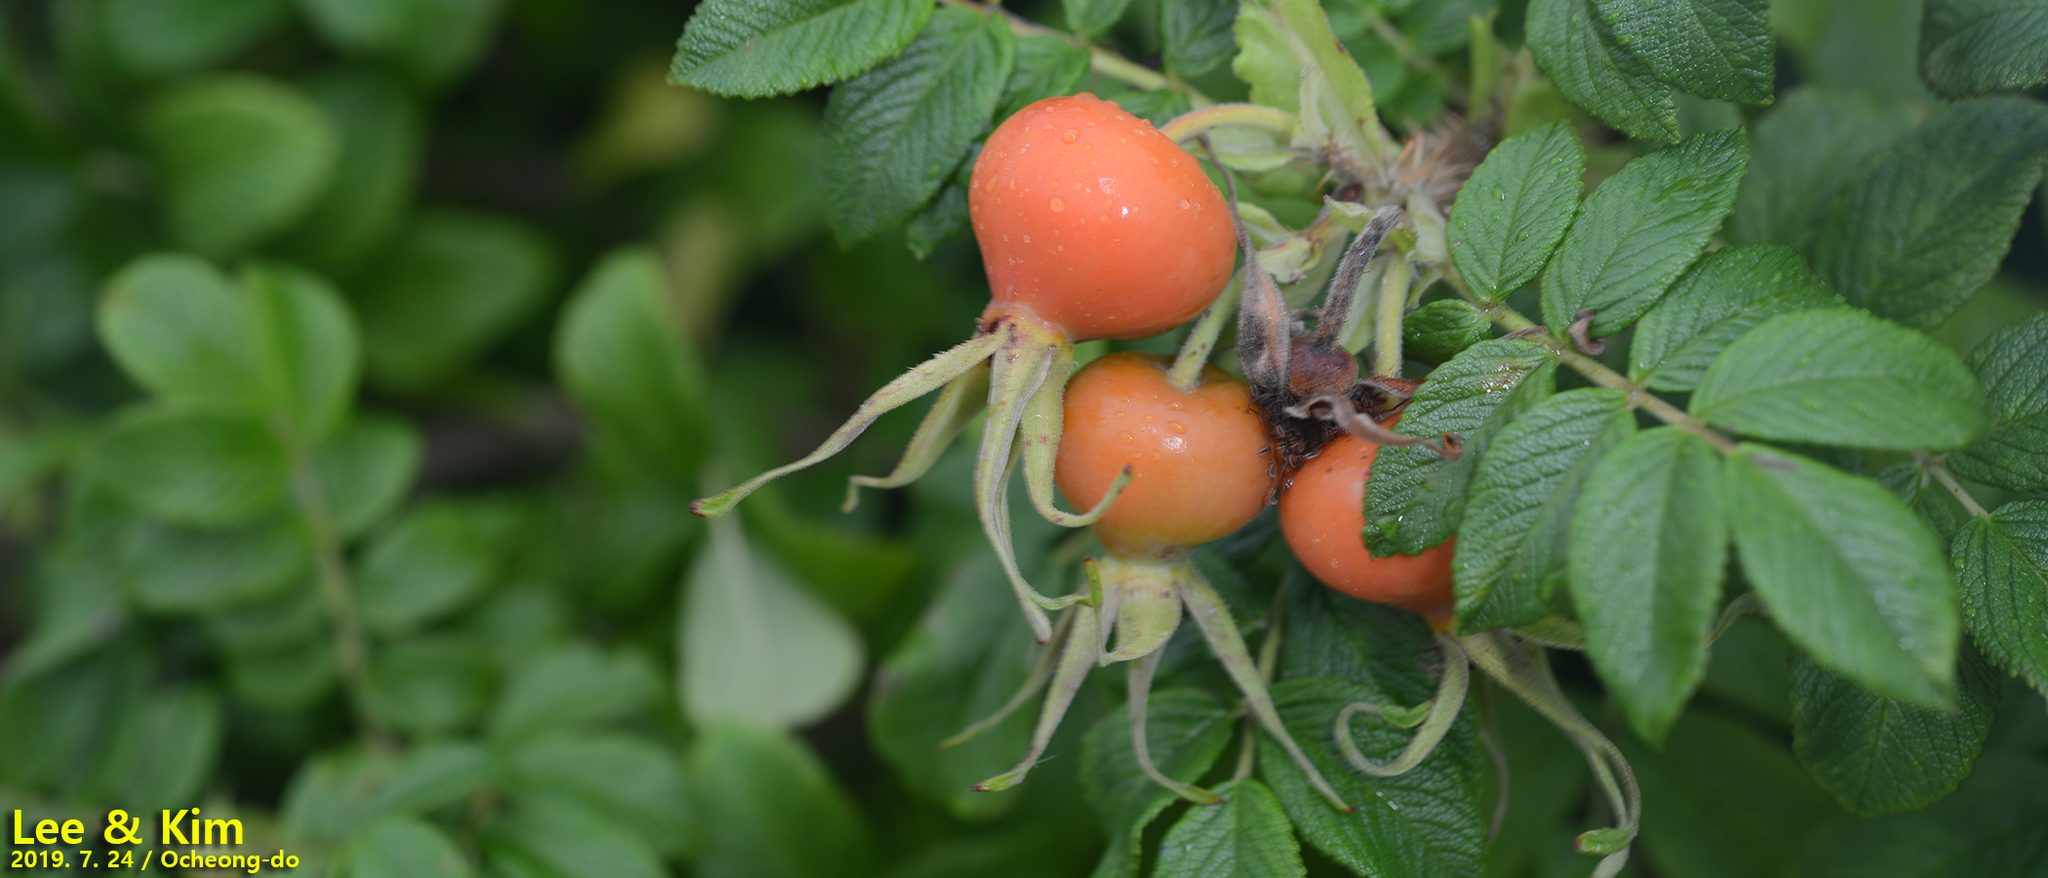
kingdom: Plantae
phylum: Tracheophyta
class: Magnoliopsida
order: Rosales
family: Rosaceae
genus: Rosa
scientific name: Rosa rugosa
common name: Japanese rose
